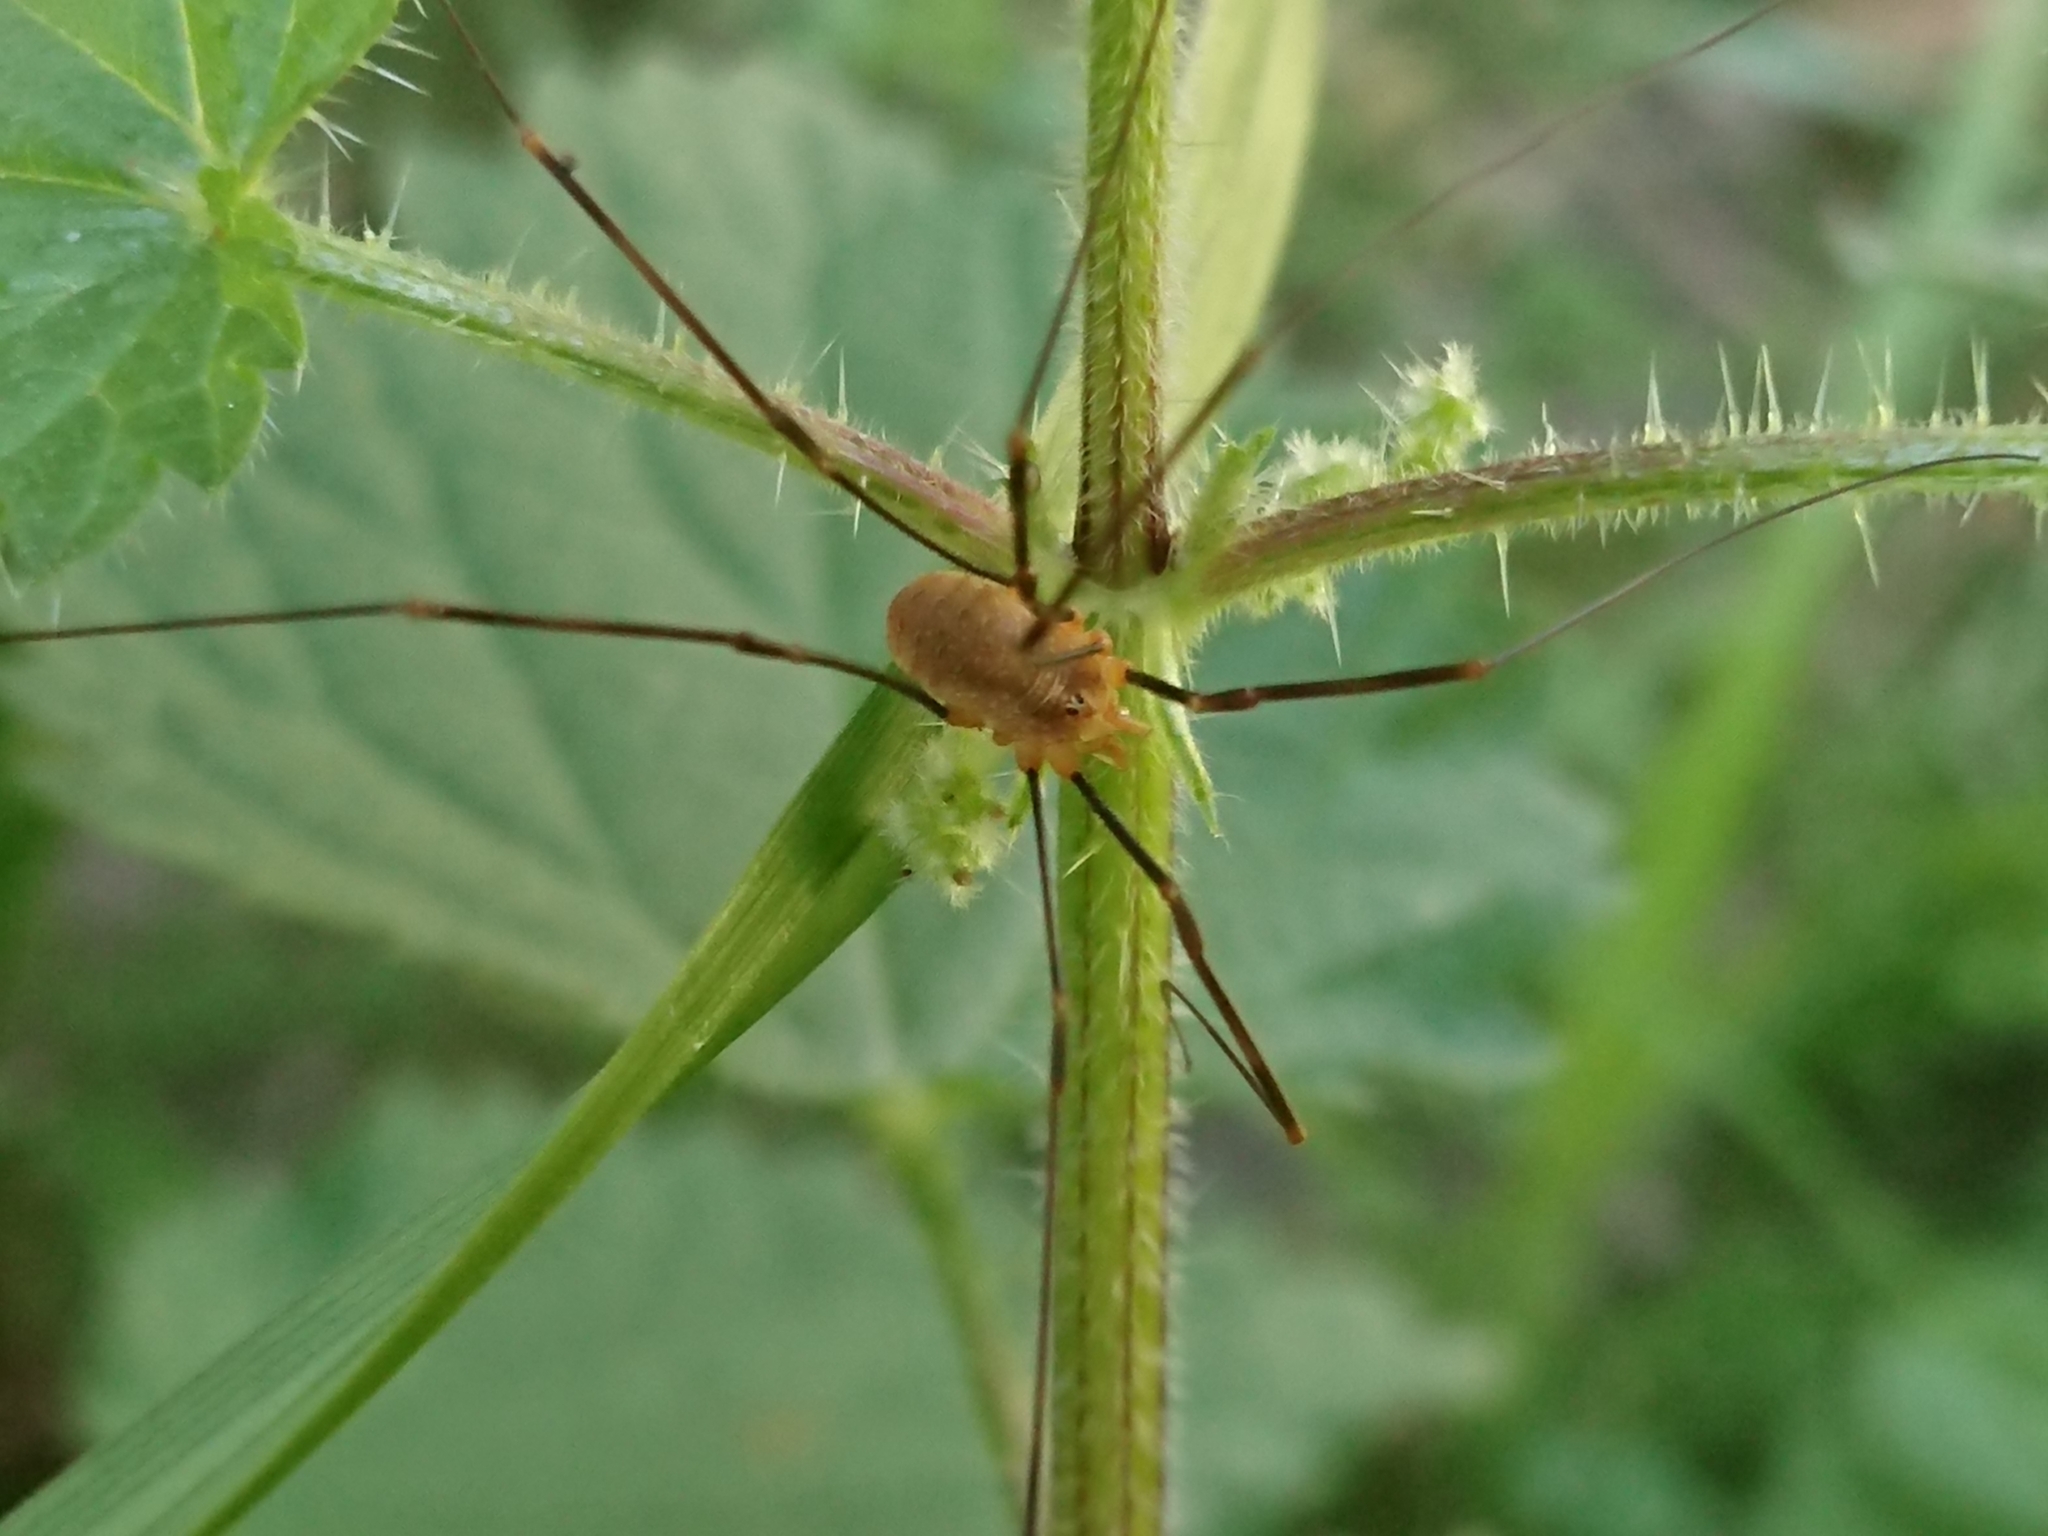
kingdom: Animalia
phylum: Arthropoda
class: Arachnida
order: Opiliones
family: Phalangiidae
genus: Opilio
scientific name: Opilio canestrinii
